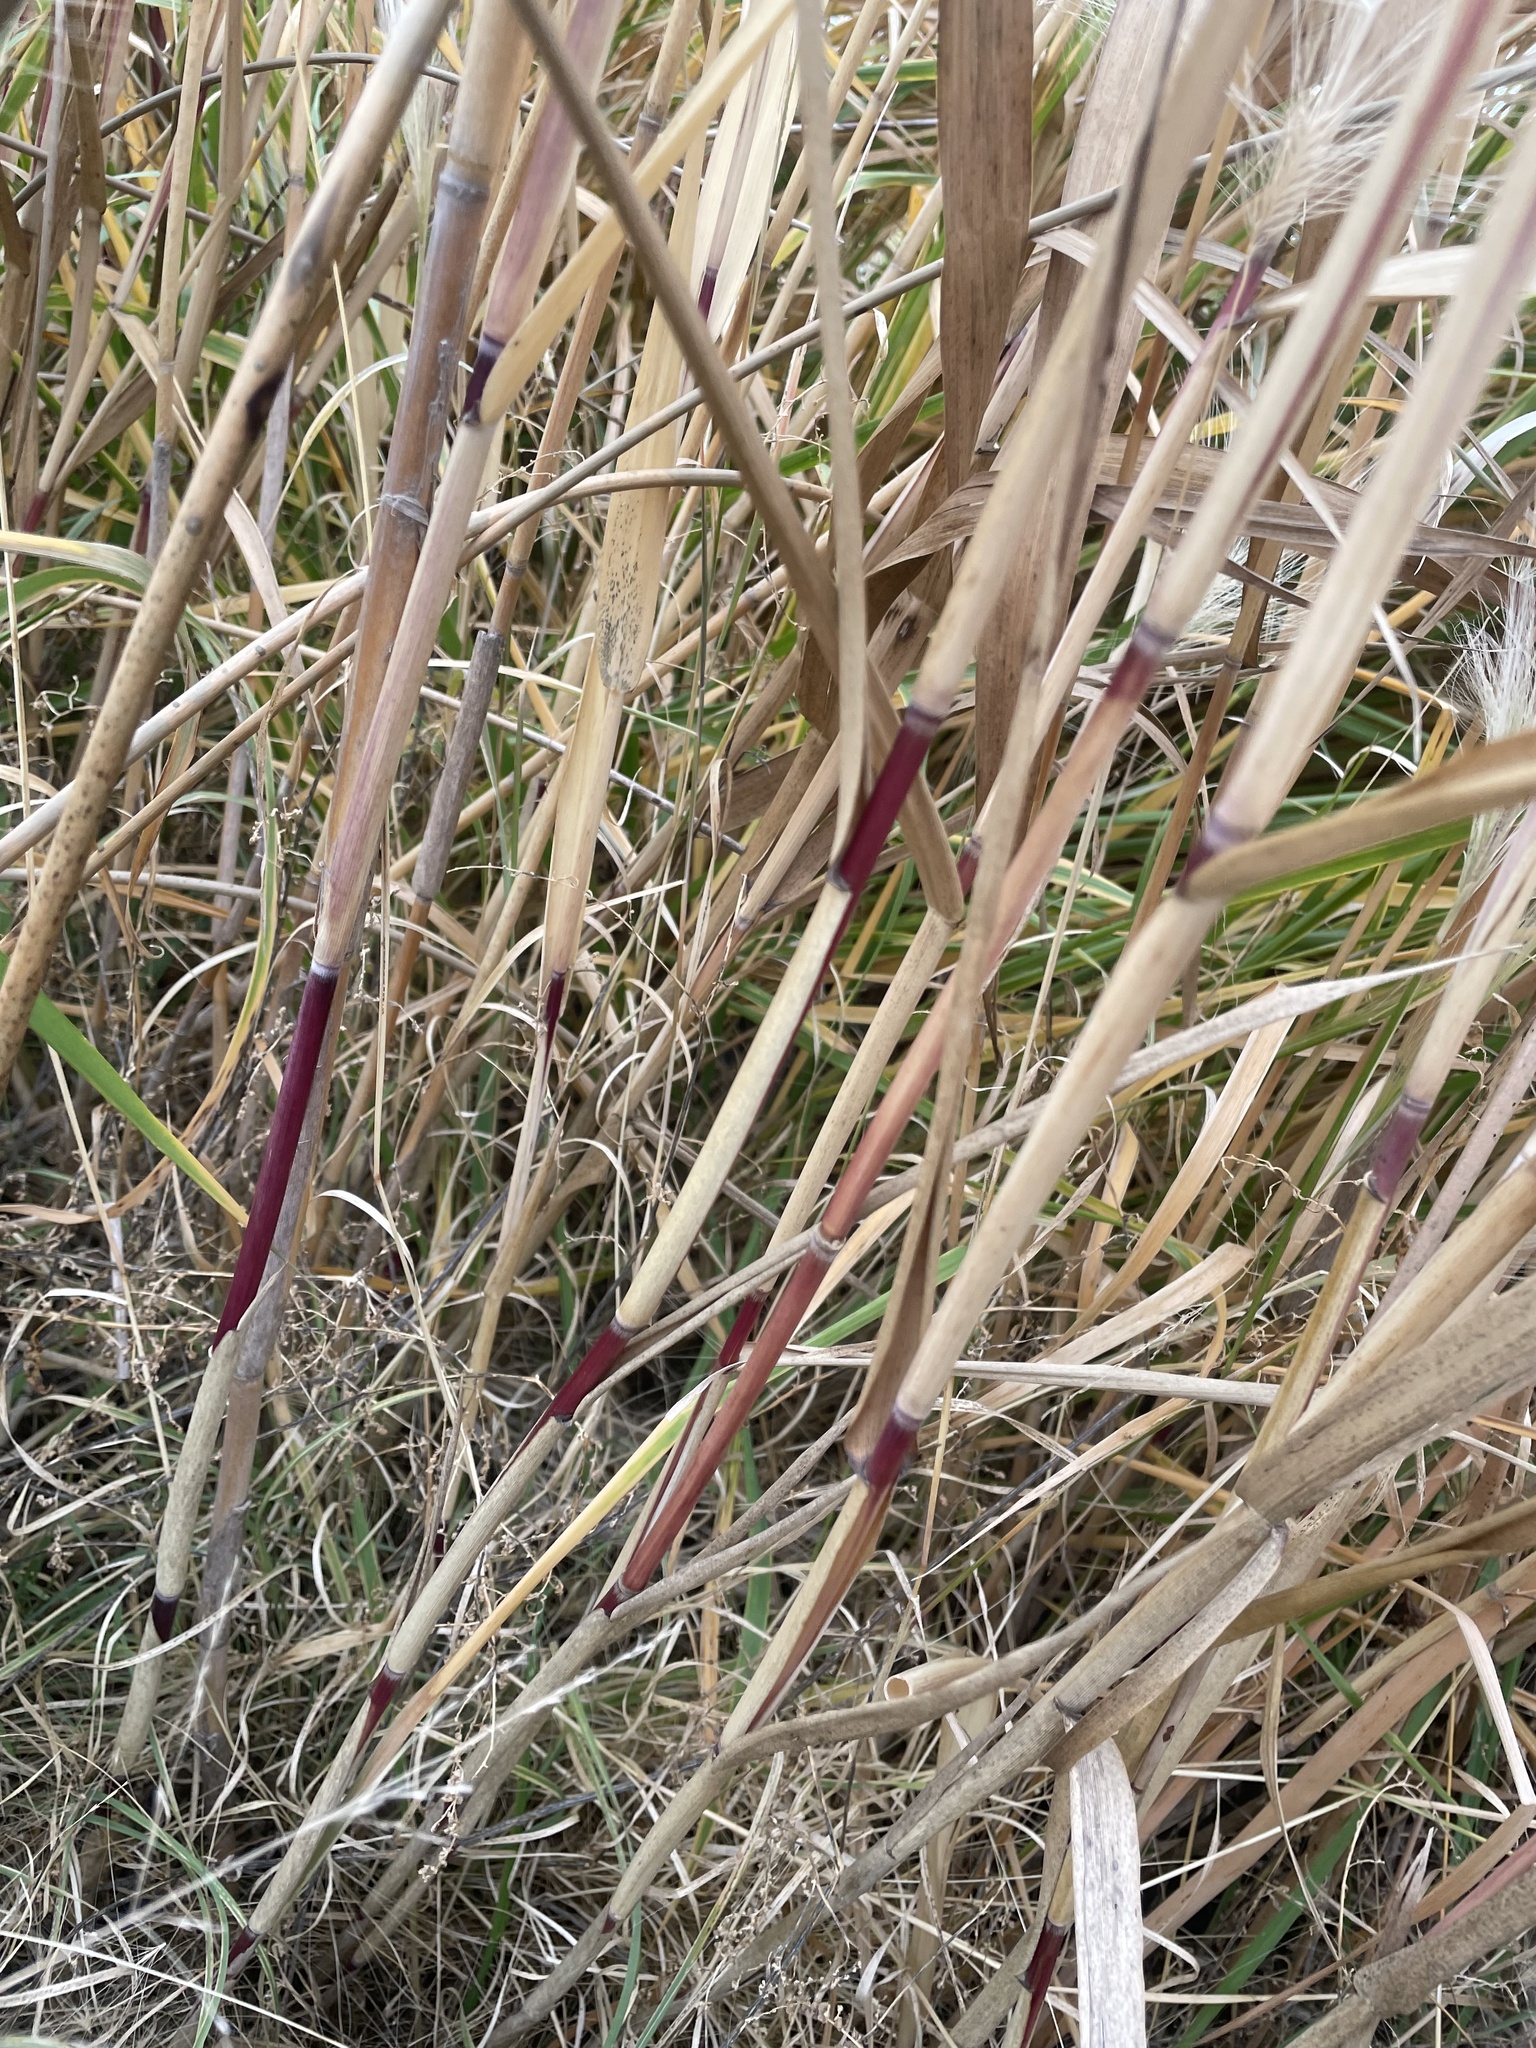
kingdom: Plantae
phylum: Tracheophyta
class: Liliopsida
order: Poales
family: Poaceae
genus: Phragmites
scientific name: Phragmites australis
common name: Common reed
